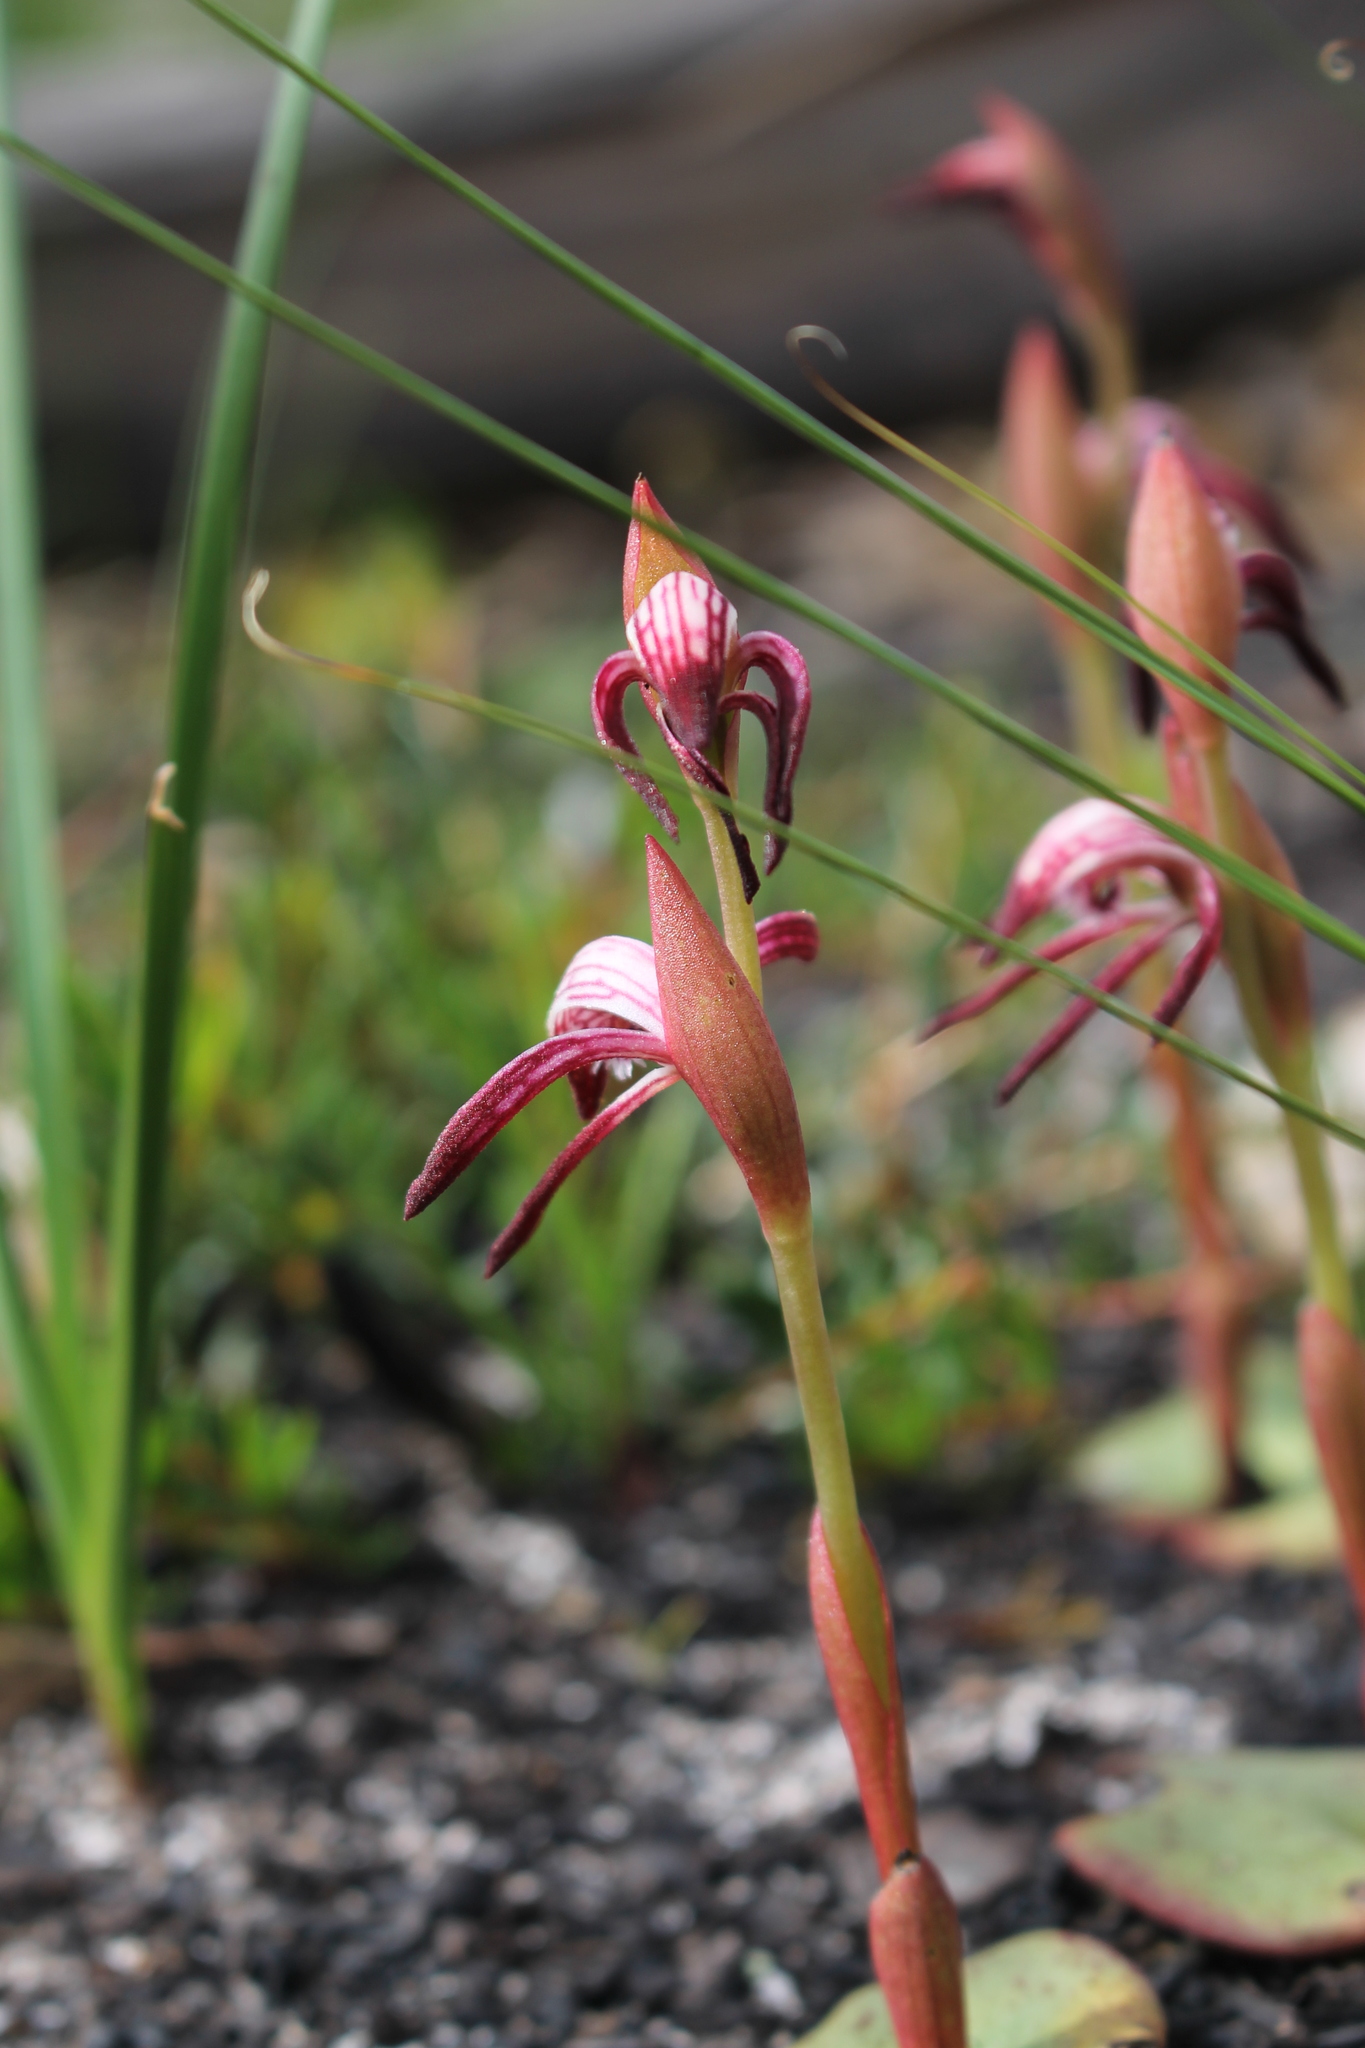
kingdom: Plantae
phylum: Tracheophyta
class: Liliopsida
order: Asparagales
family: Orchidaceae
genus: Pyrorchis
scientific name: Pyrorchis nigricans
